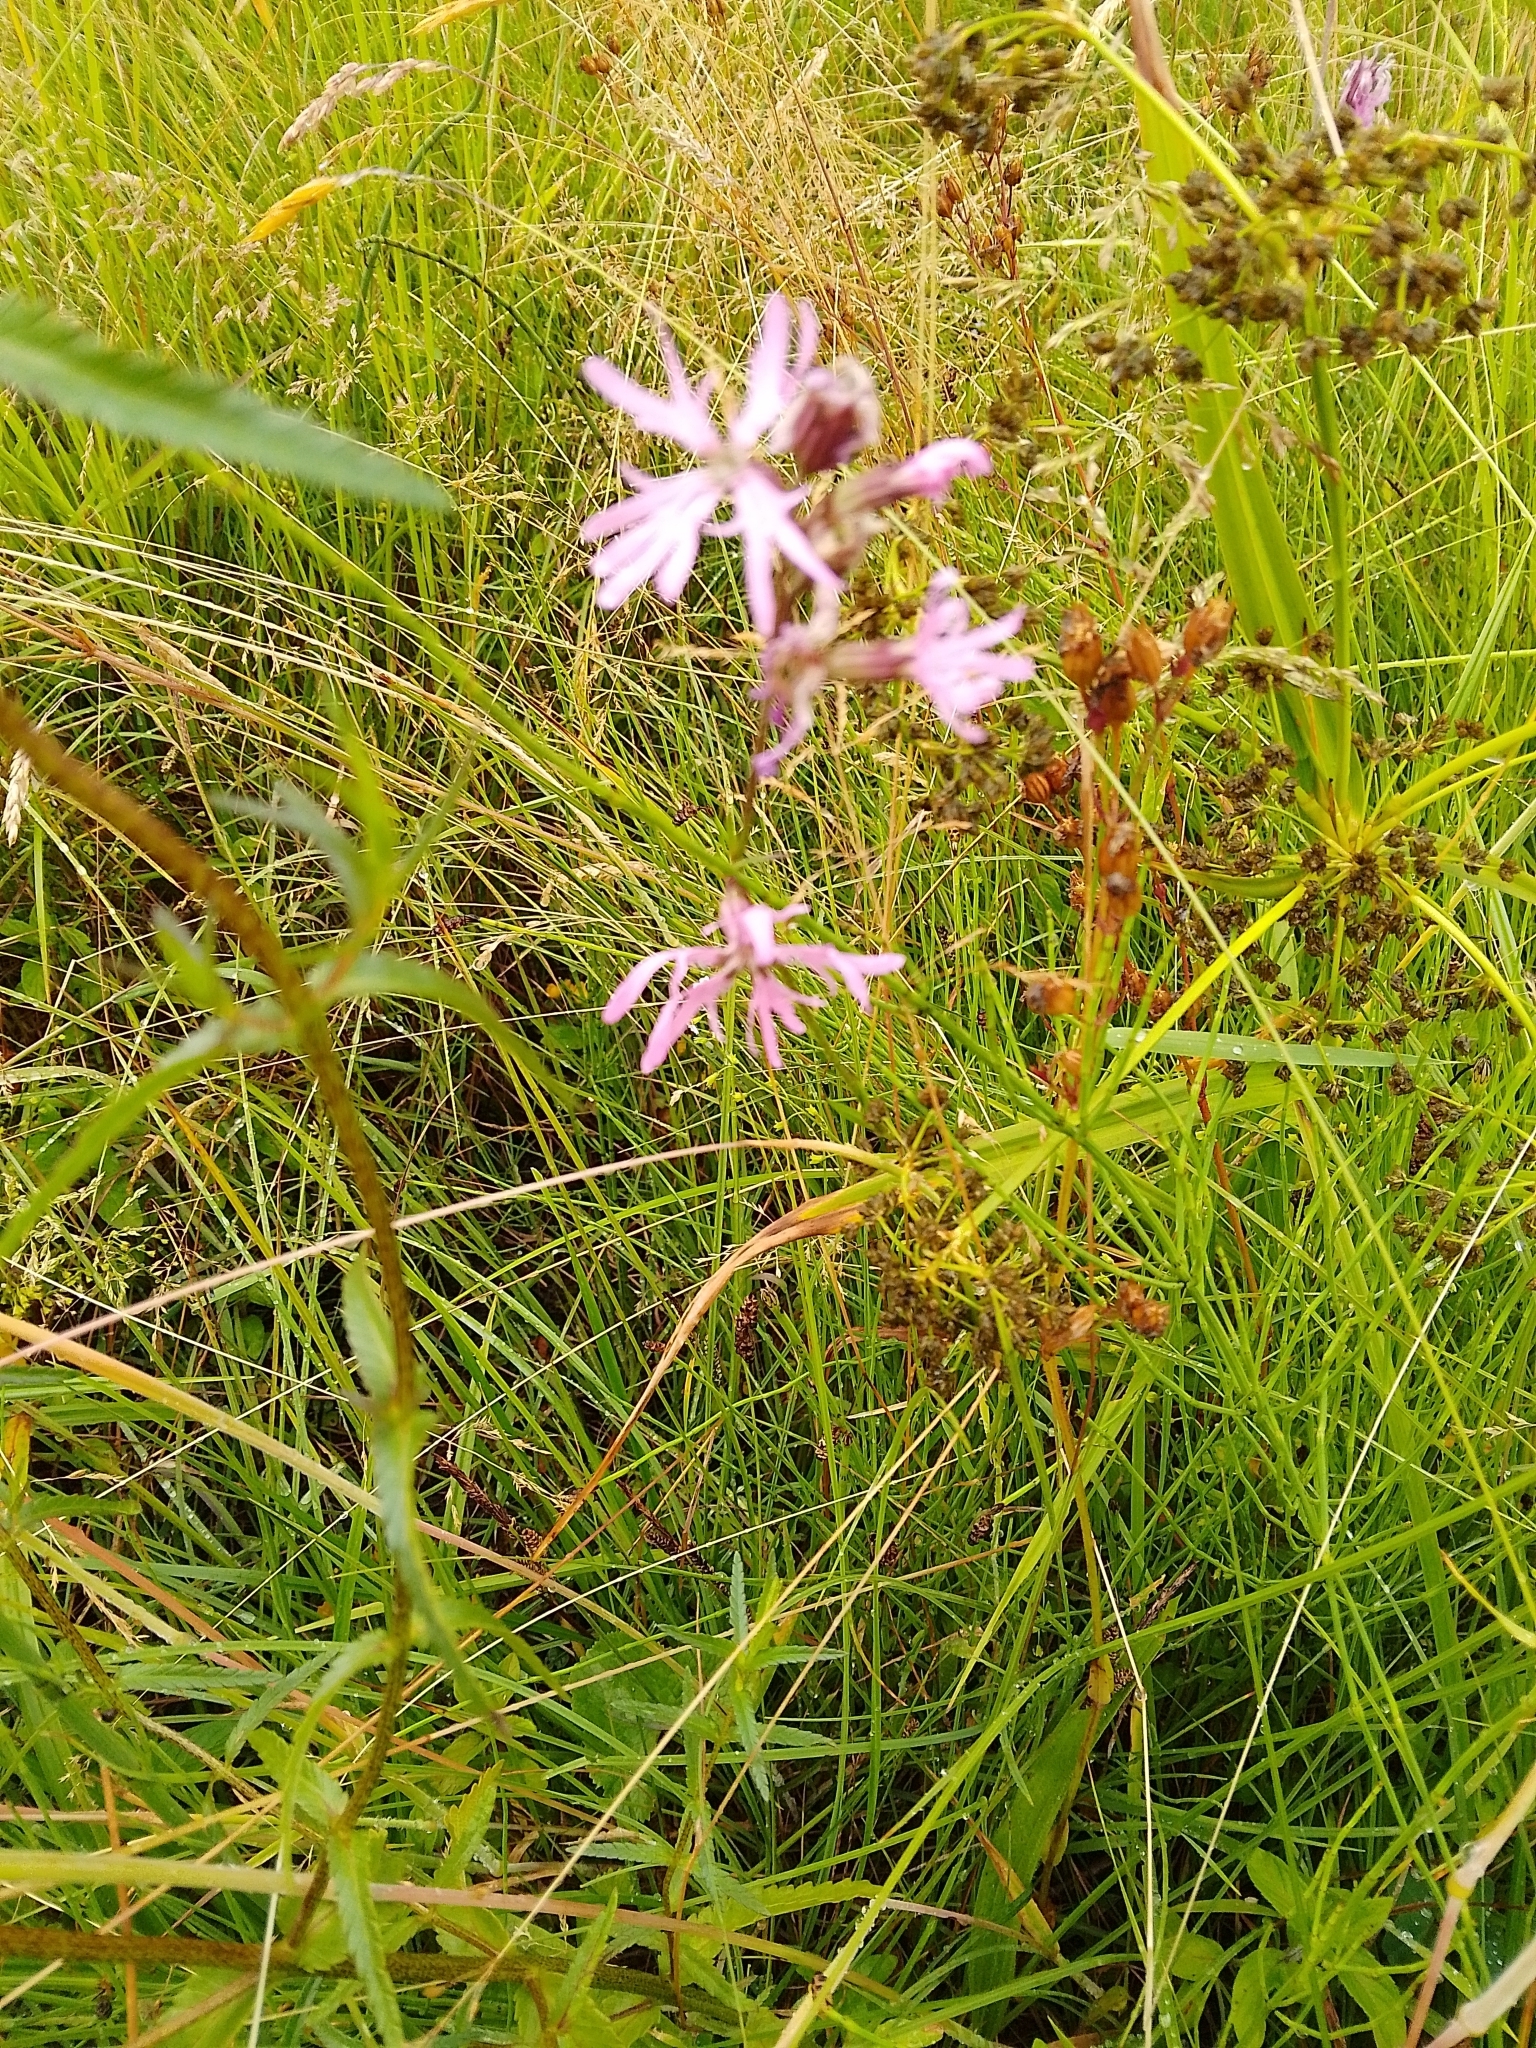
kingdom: Plantae
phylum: Tracheophyta
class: Magnoliopsida
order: Caryophyllales
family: Caryophyllaceae
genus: Silene
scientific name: Silene flos-cuculi
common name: Ragged-robin
